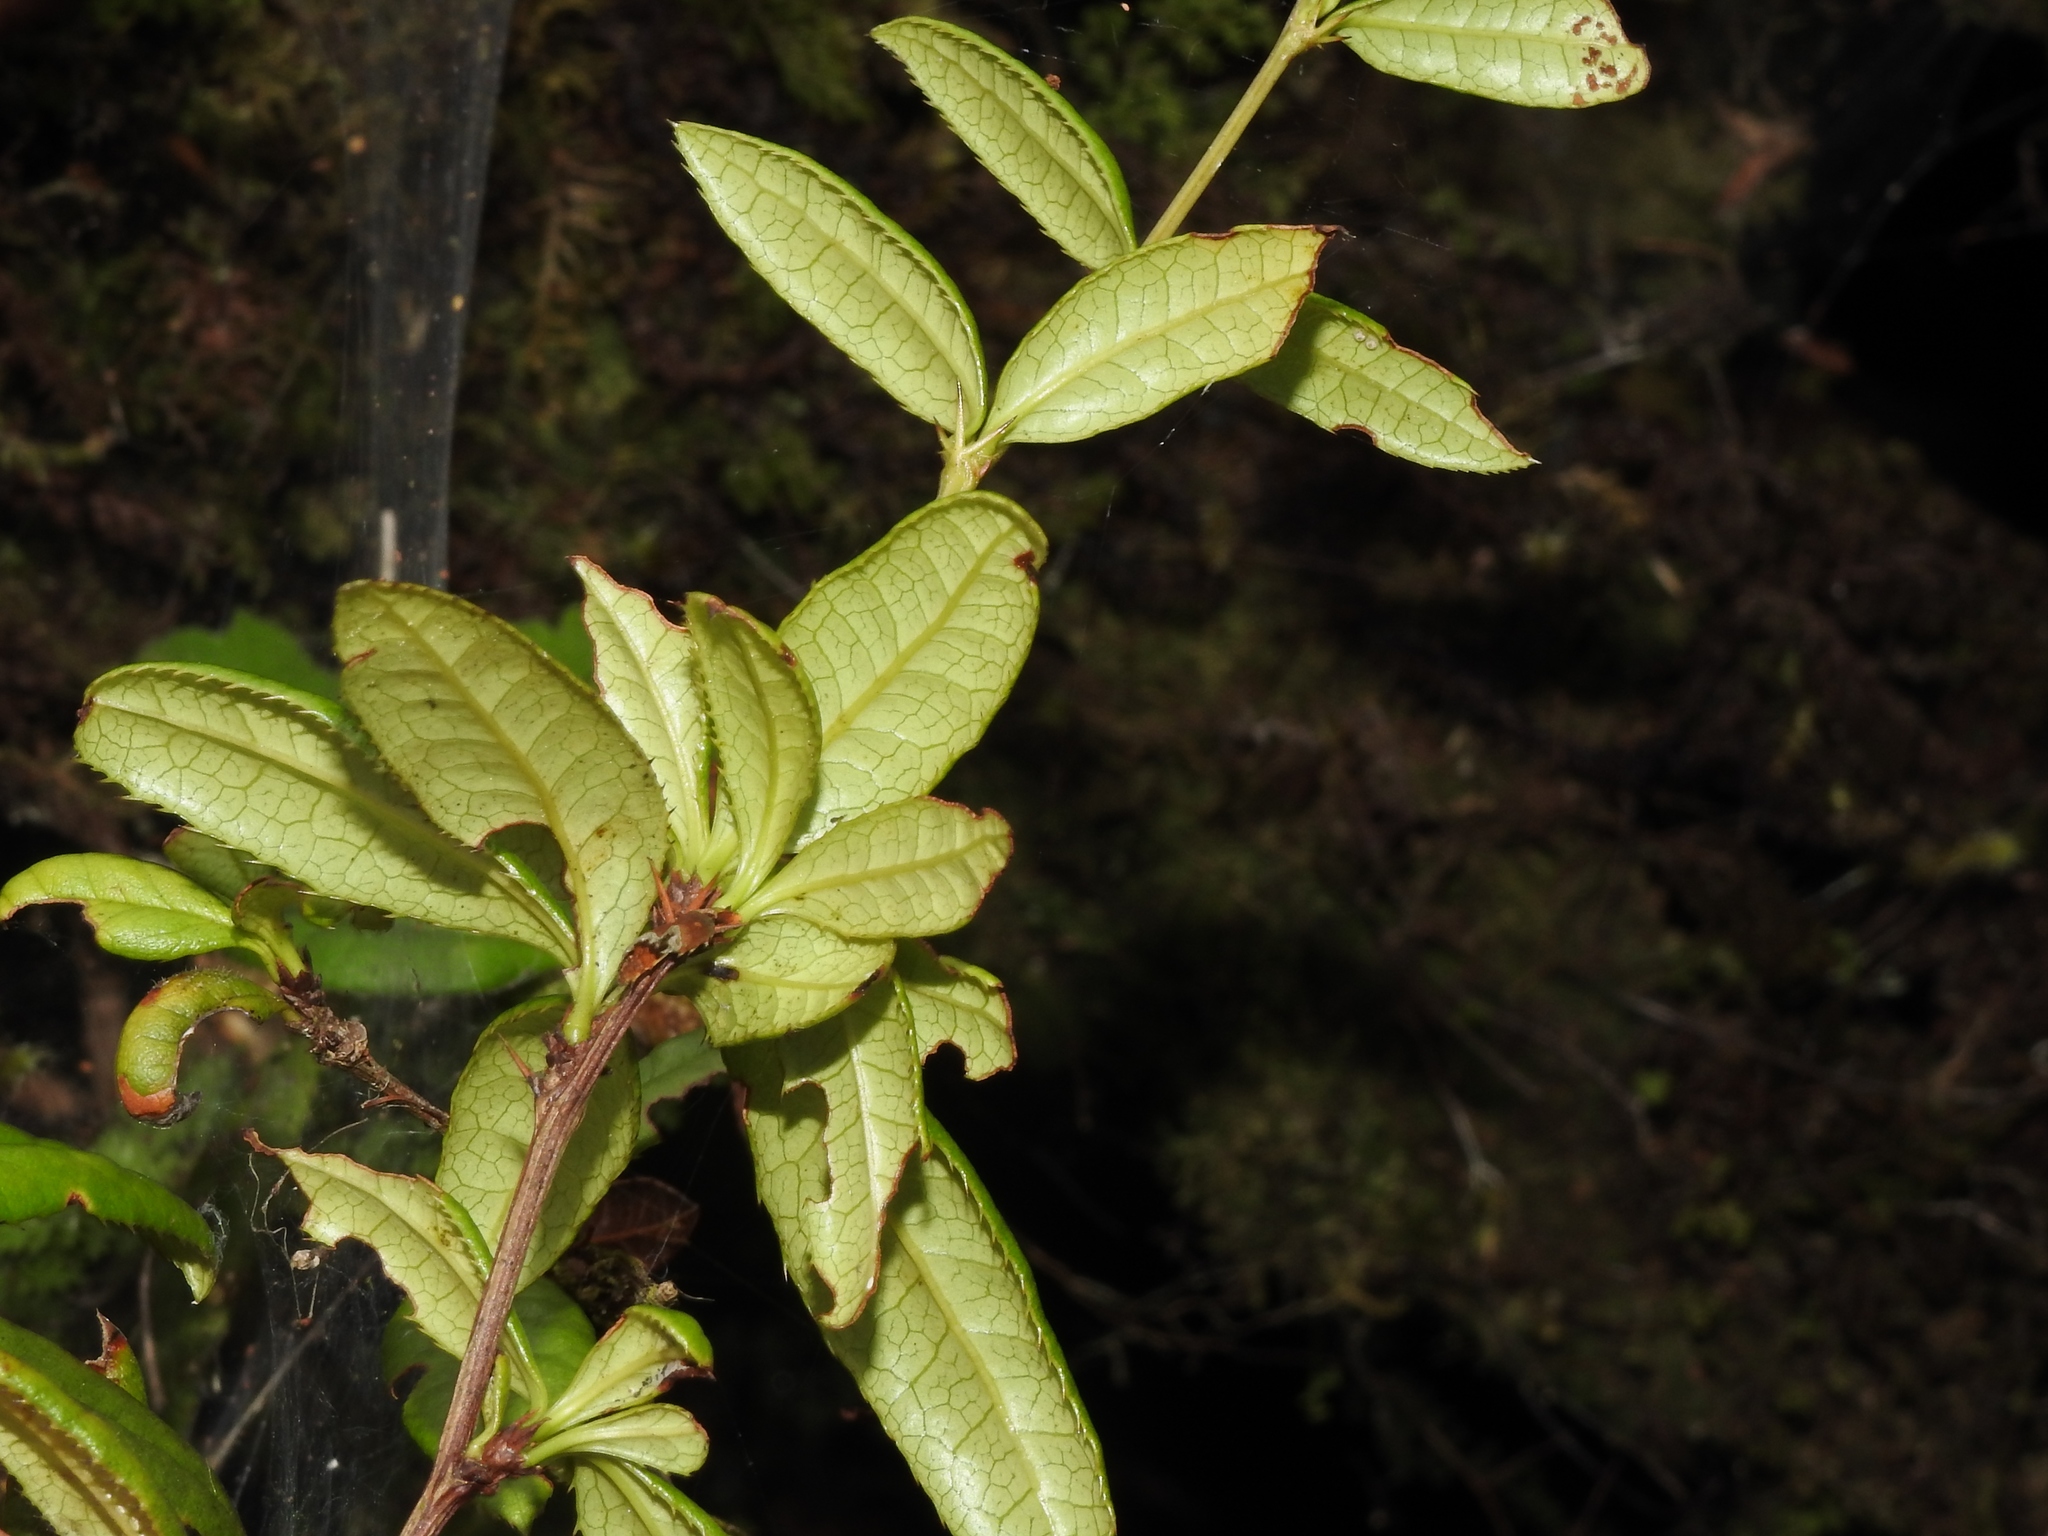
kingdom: Plantae
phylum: Tracheophyta
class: Magnoliopsida
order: Ranunculales
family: Berberidaceae
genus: Berberis
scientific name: Berberis aristatoserrulata
